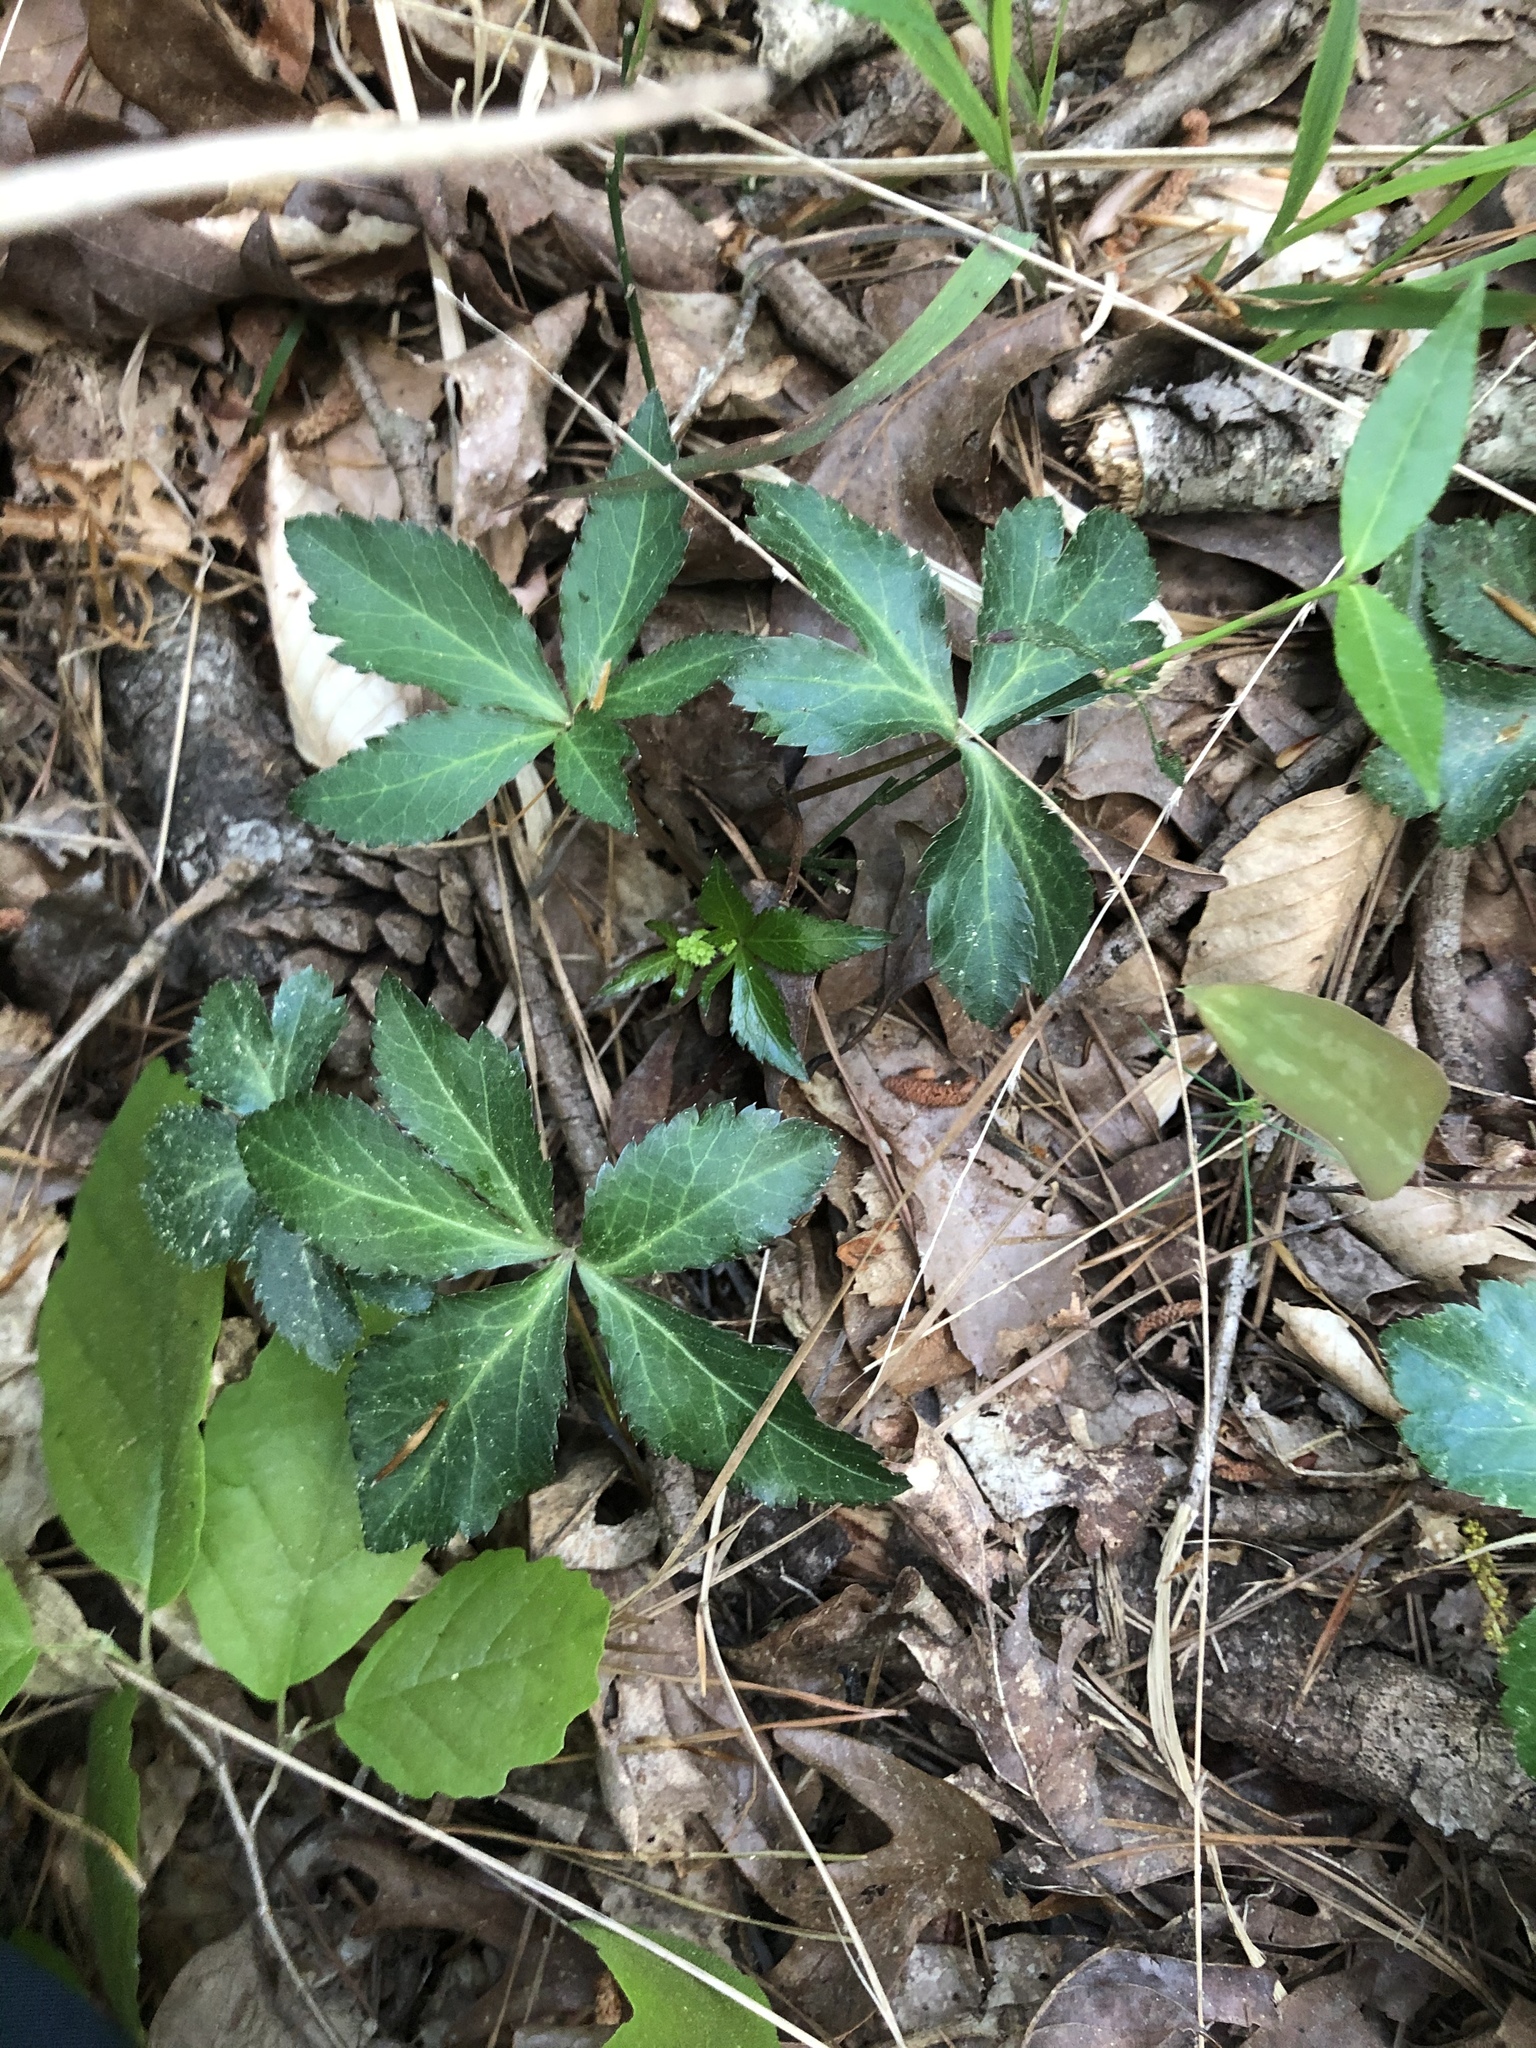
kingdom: Plantae
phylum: Tracheophyta
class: Magnoliopsida
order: Apiales
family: Apiaceae
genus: Sanicula
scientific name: Sanicula smallii
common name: Small's black snakeroot
